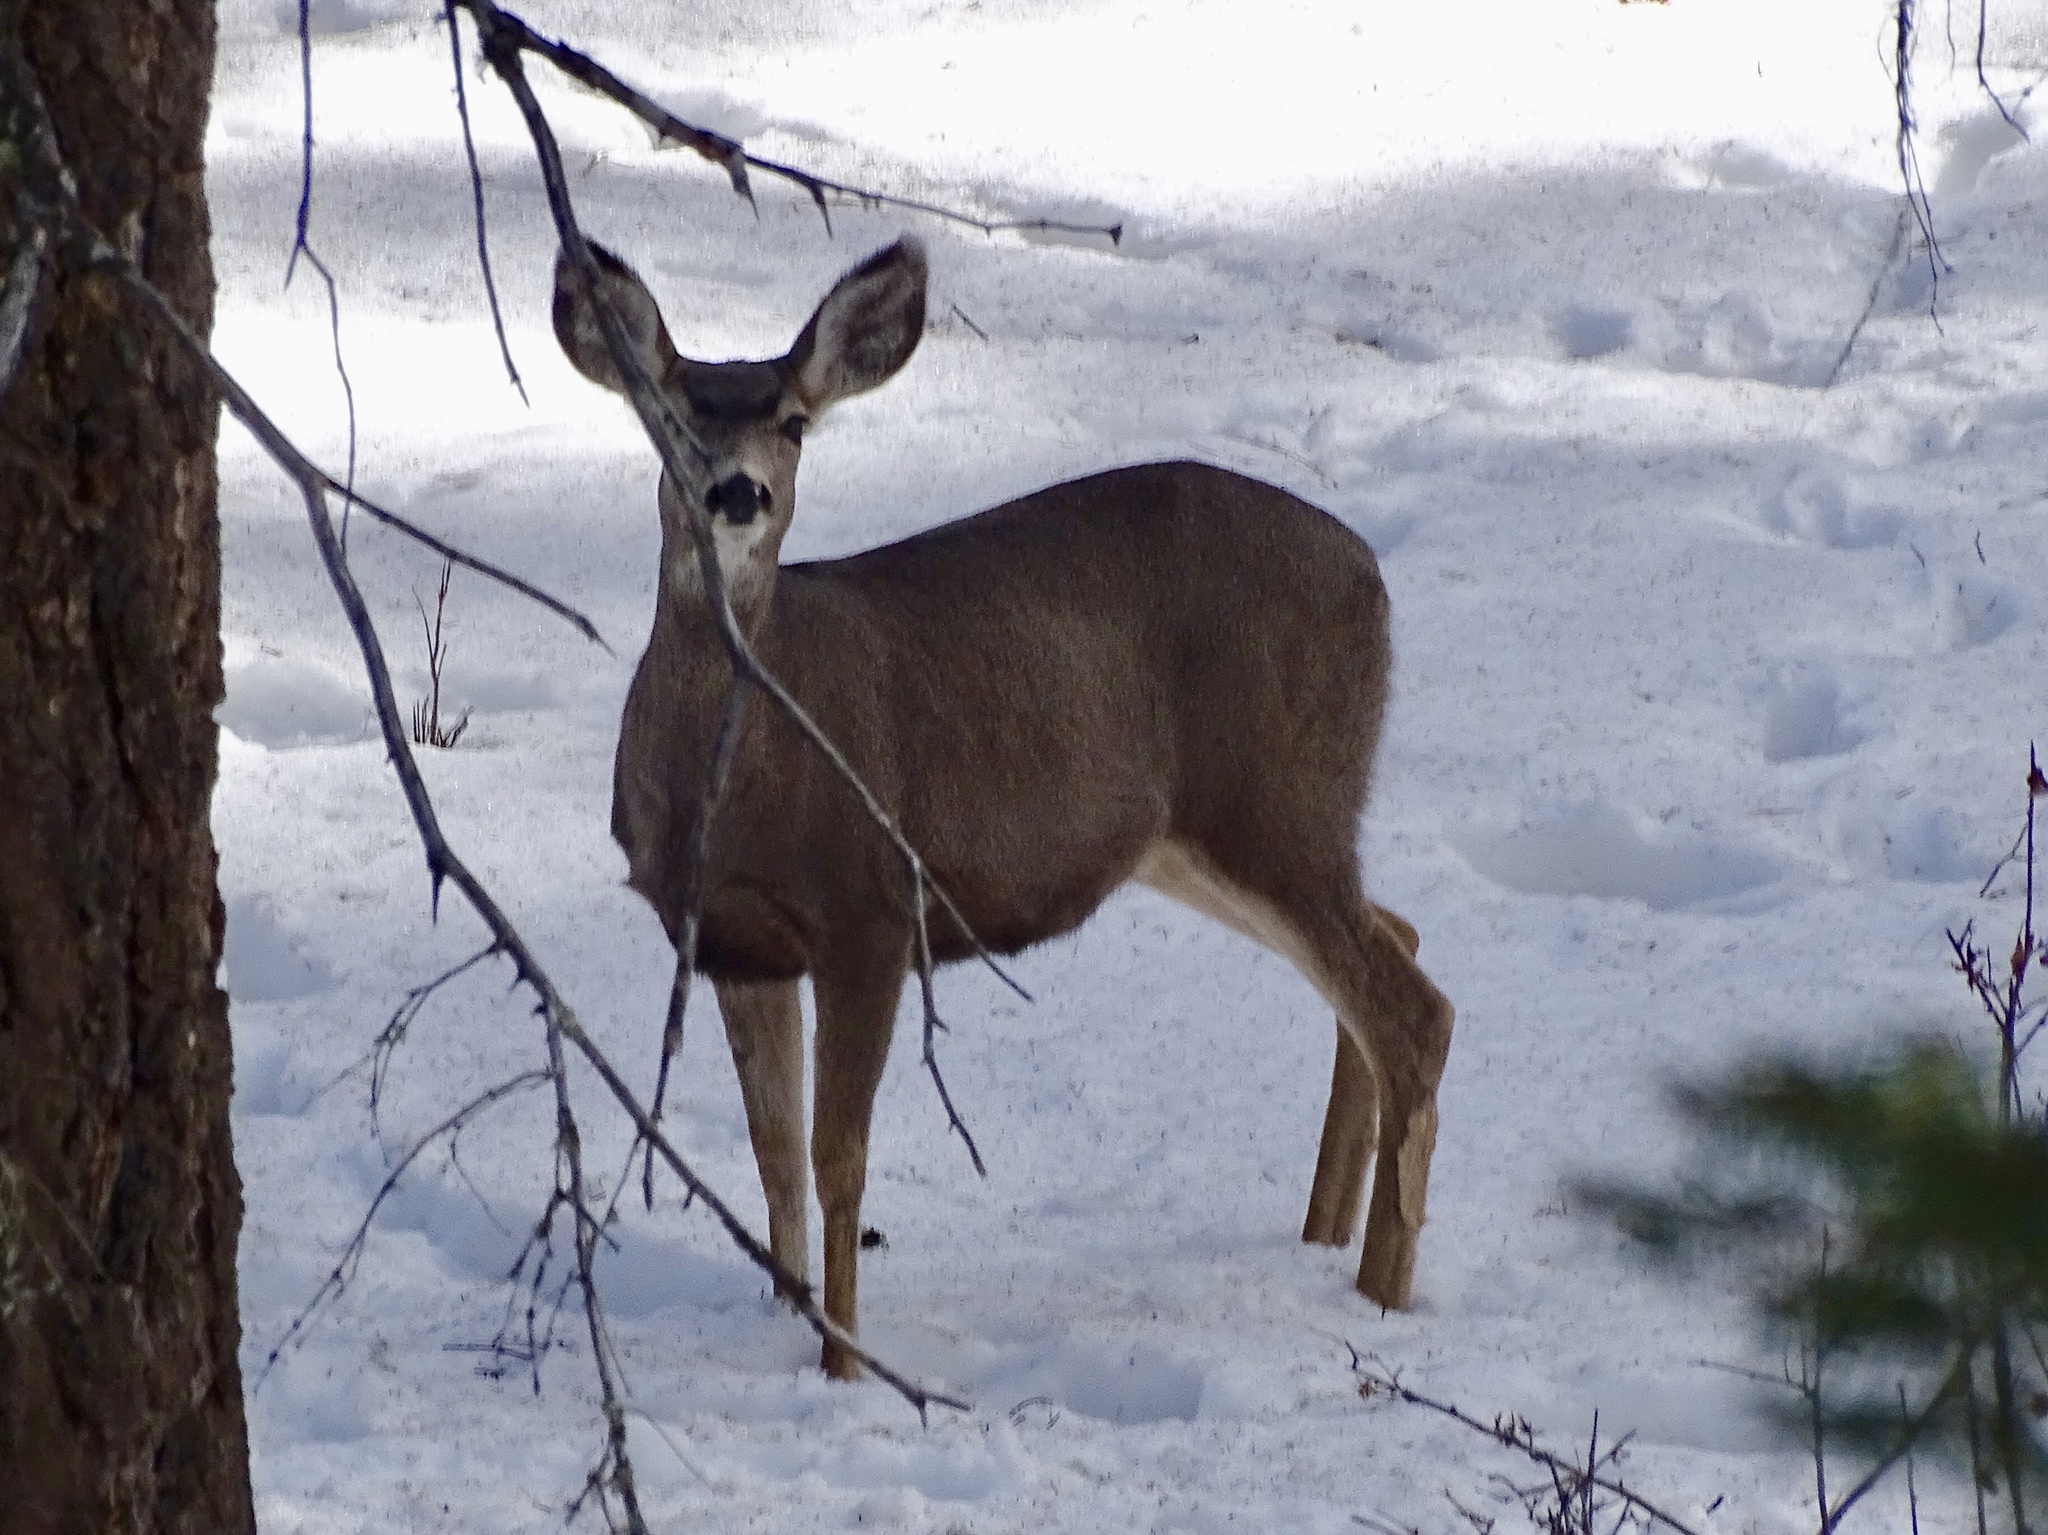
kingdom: Animalia
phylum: Chordata
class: Mammalia
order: Artiodactyla
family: Cervidae
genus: Odocoileus
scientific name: Odocoileus hemionus
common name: Mule deer
